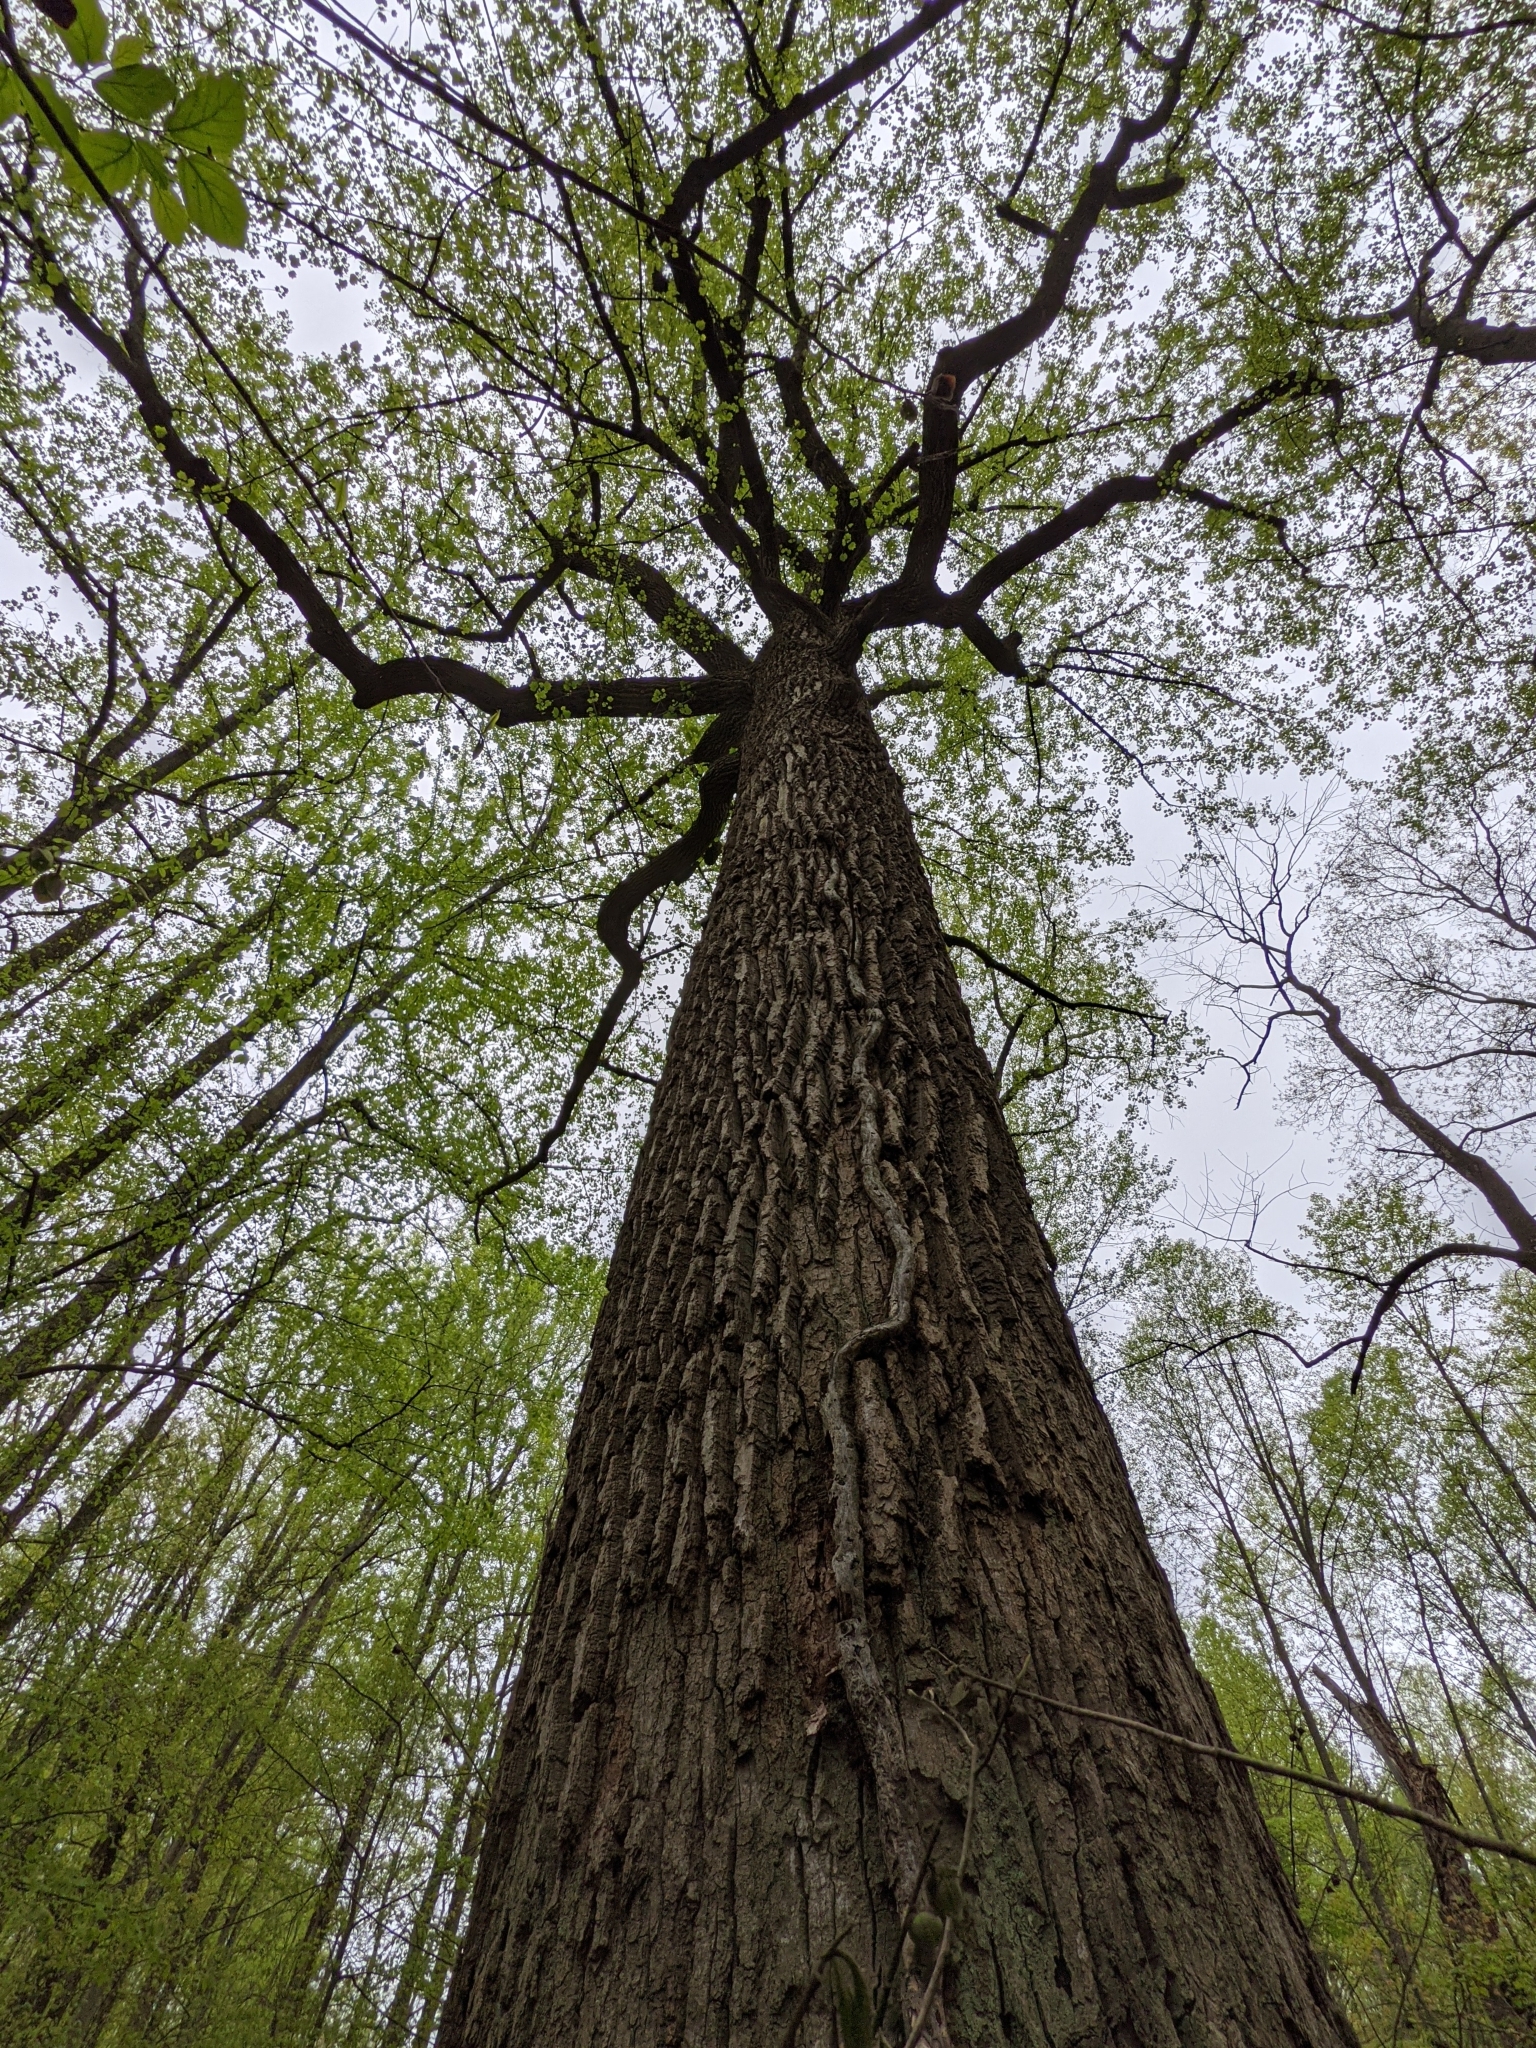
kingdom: Plantae
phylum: Tracheophyta
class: Magnoliopsida
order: Magnoliales
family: Magnoliaceae
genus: Liriodendron
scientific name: Liriodendron tulipifera
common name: Tulip tree
